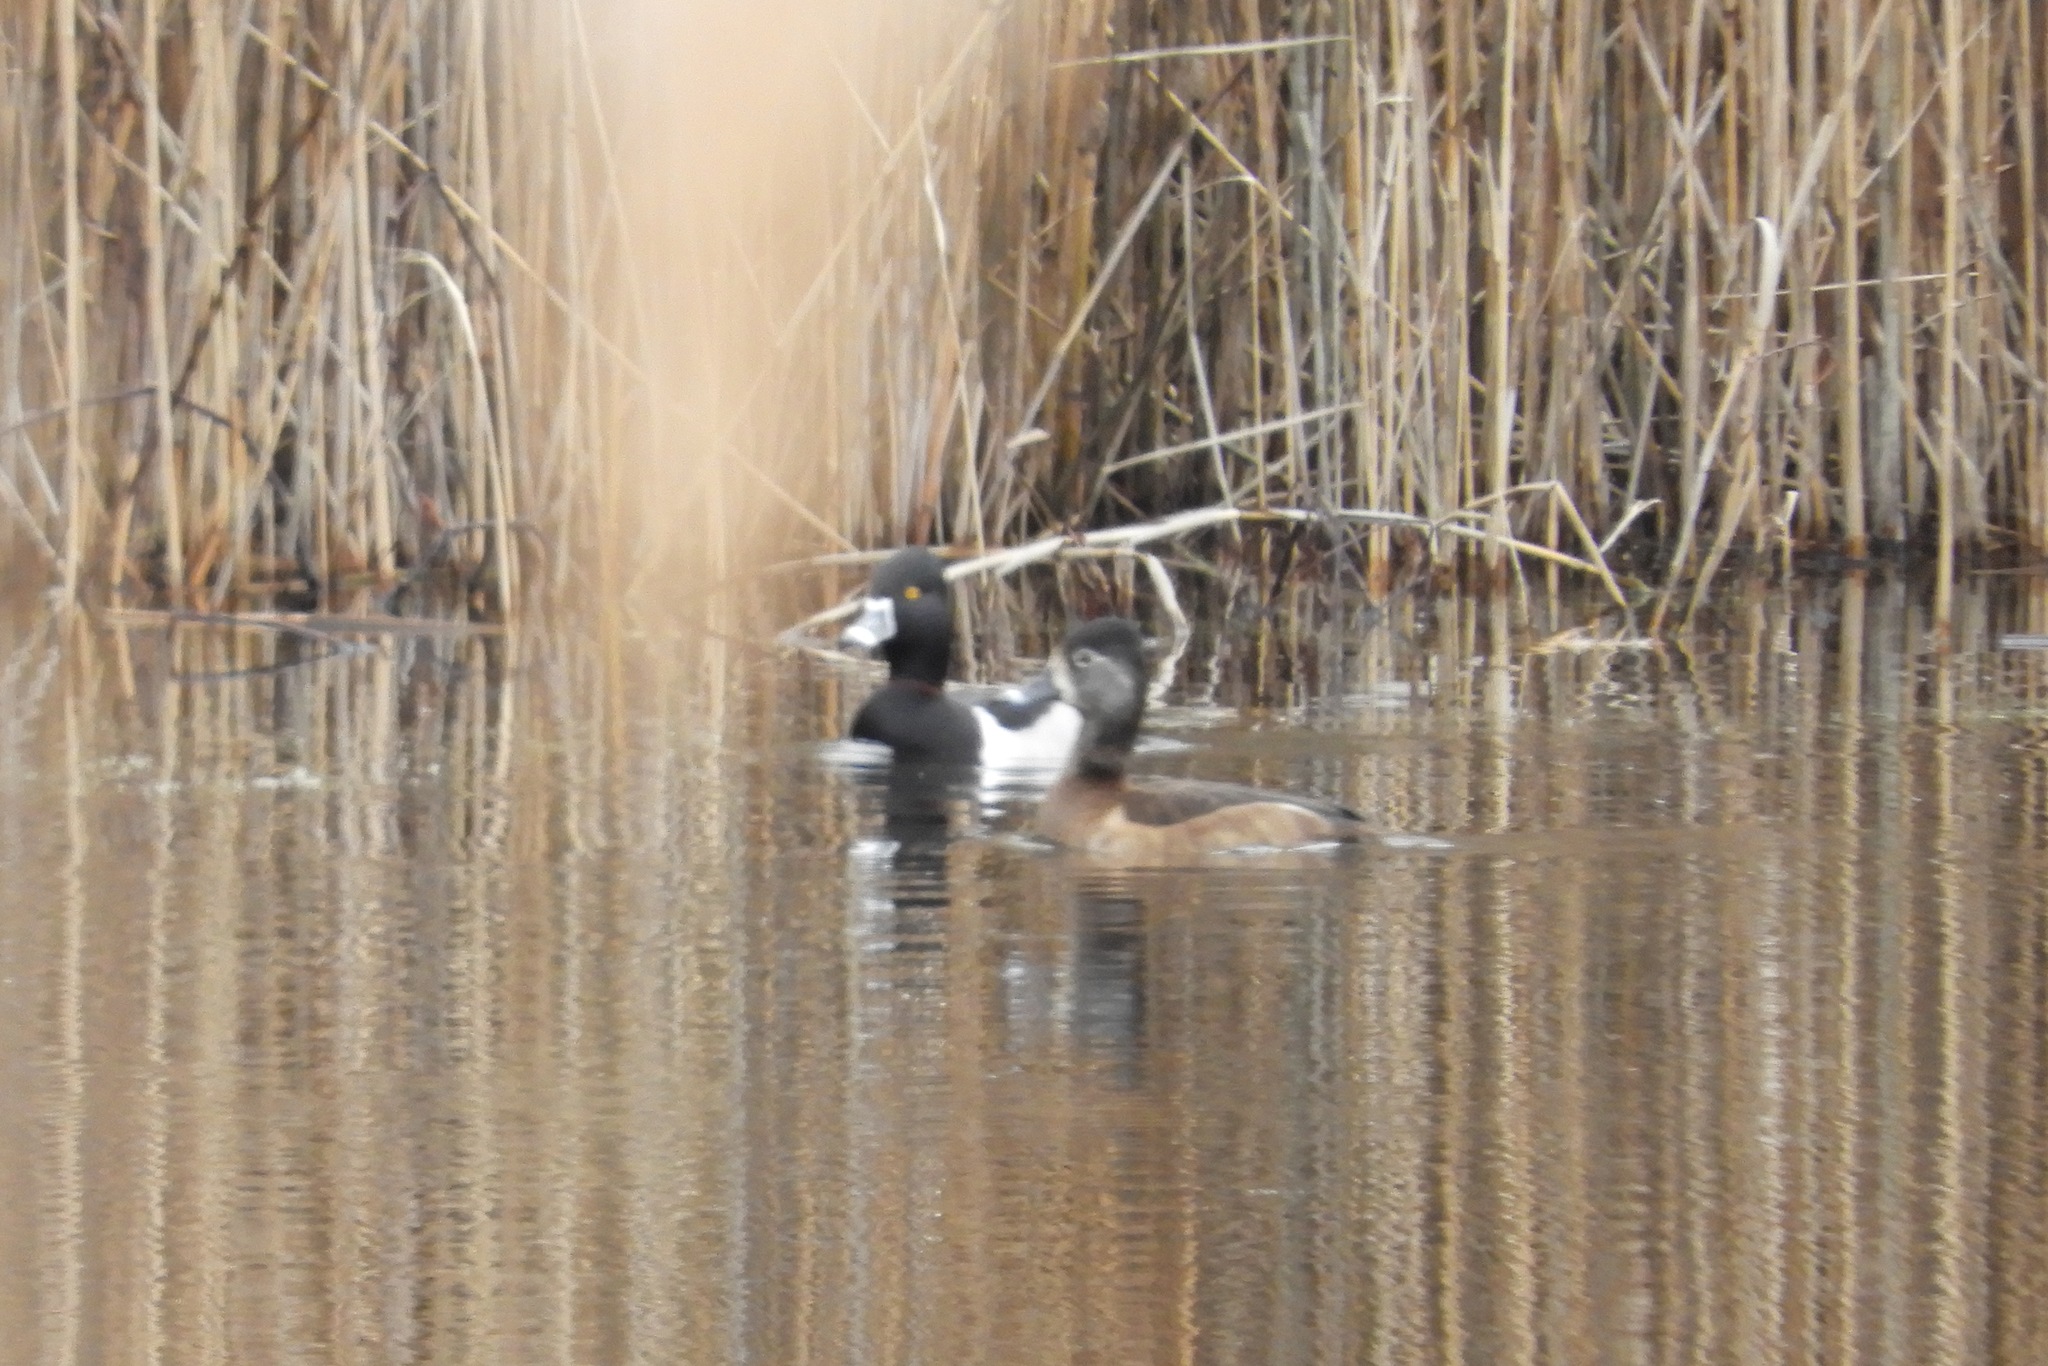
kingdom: Animalia
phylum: Chordata
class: Aves
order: Anseriformes
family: Anatidae
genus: Aythya
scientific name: Aythya collaris
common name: Ring-necked duck
